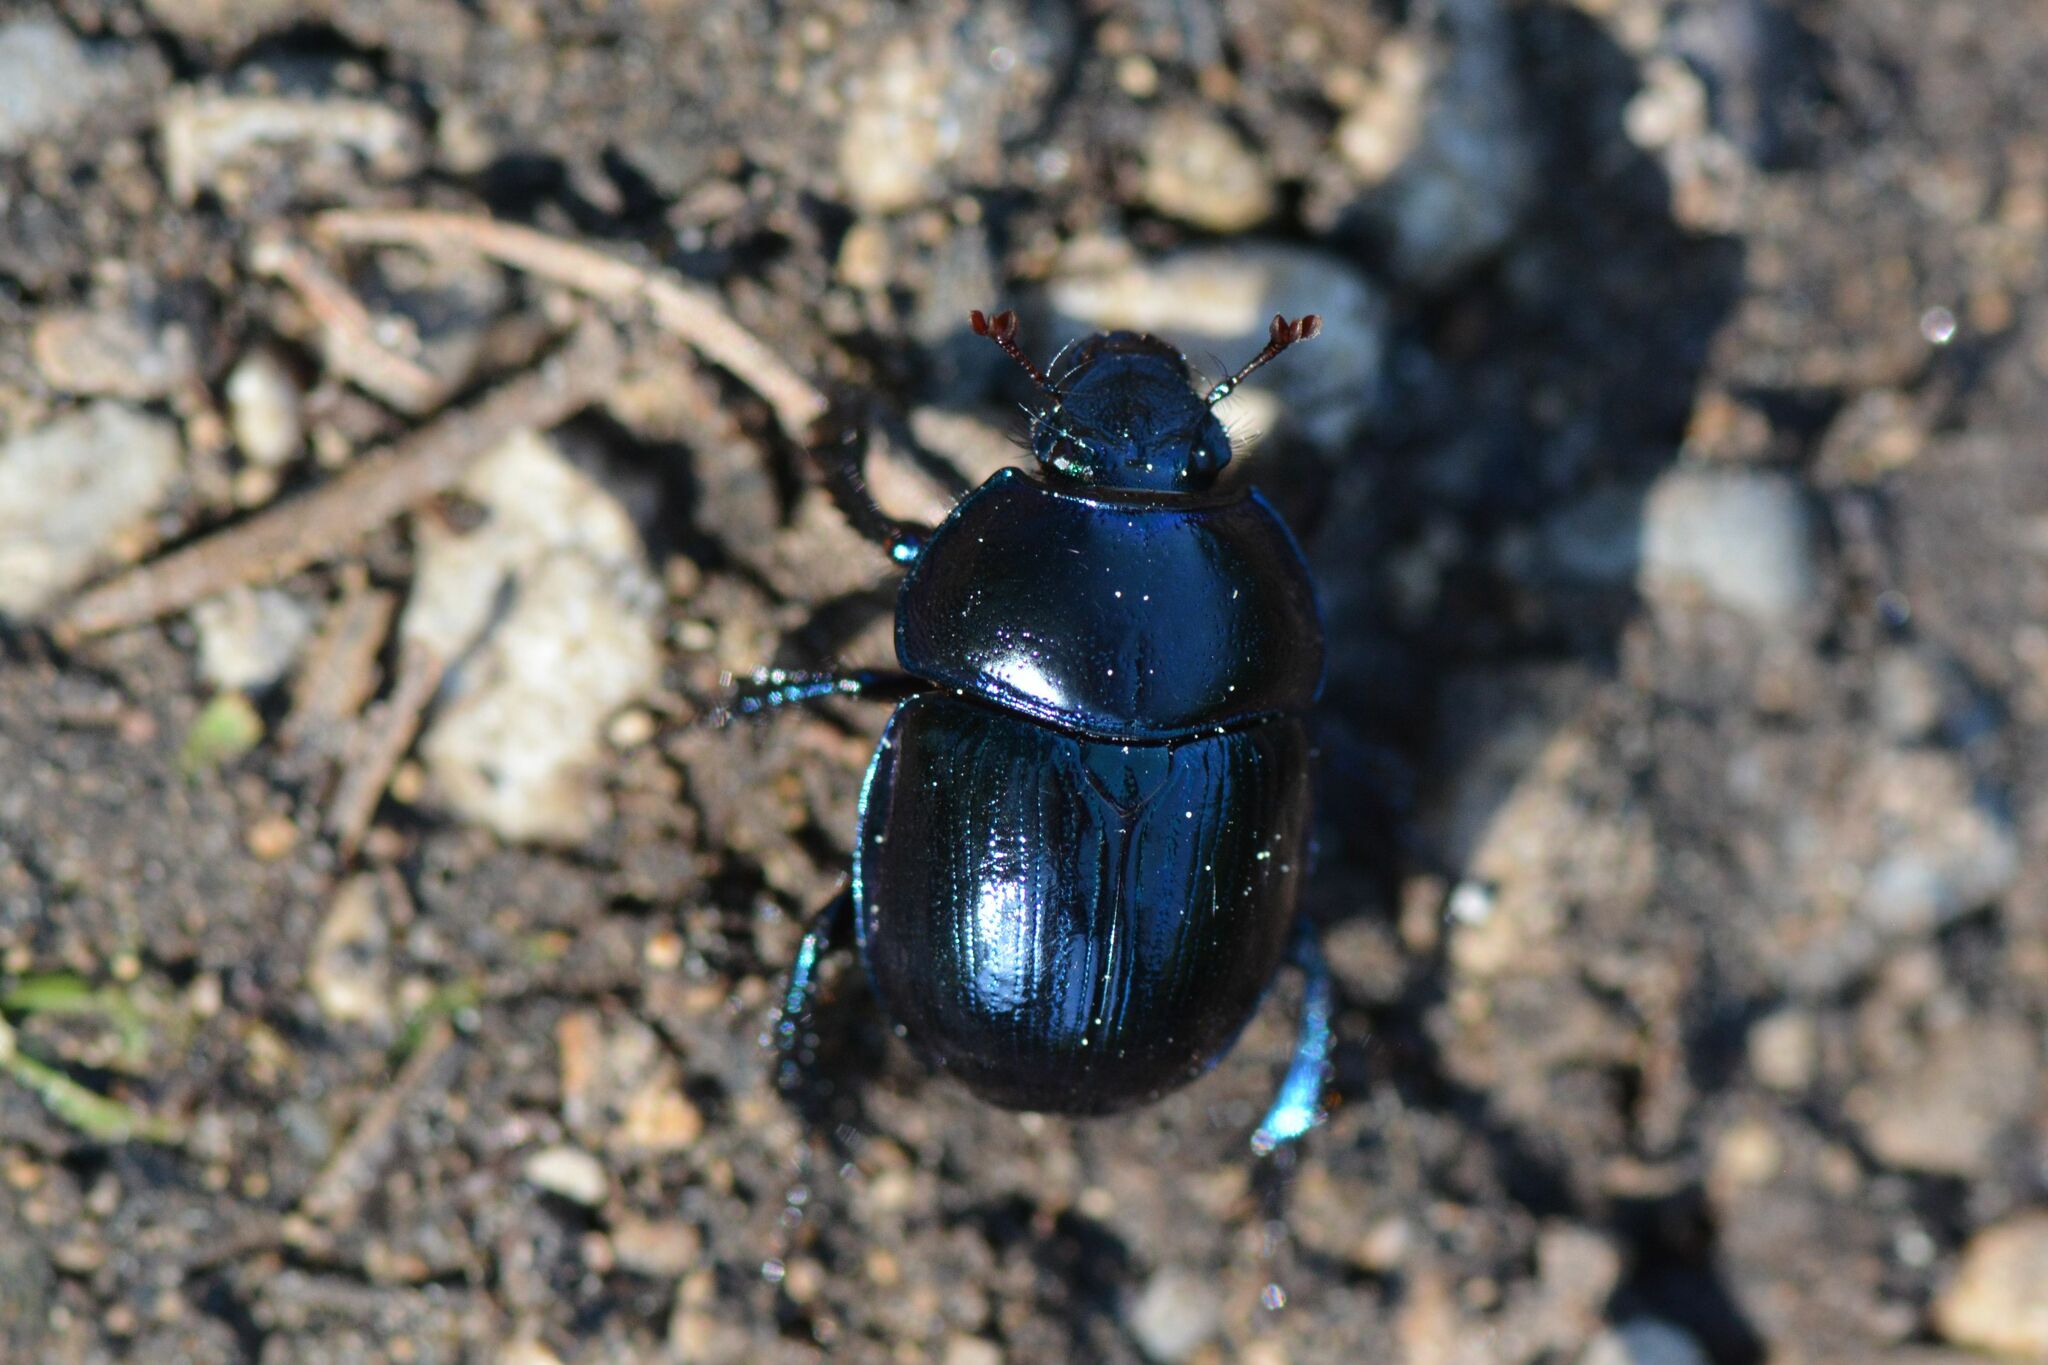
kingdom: Animalia
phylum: Arthropoda
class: Insecta
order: Coleoptera
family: Geotrupidae
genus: Anoplotrupes
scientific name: Anoplotrupes stercorosus
